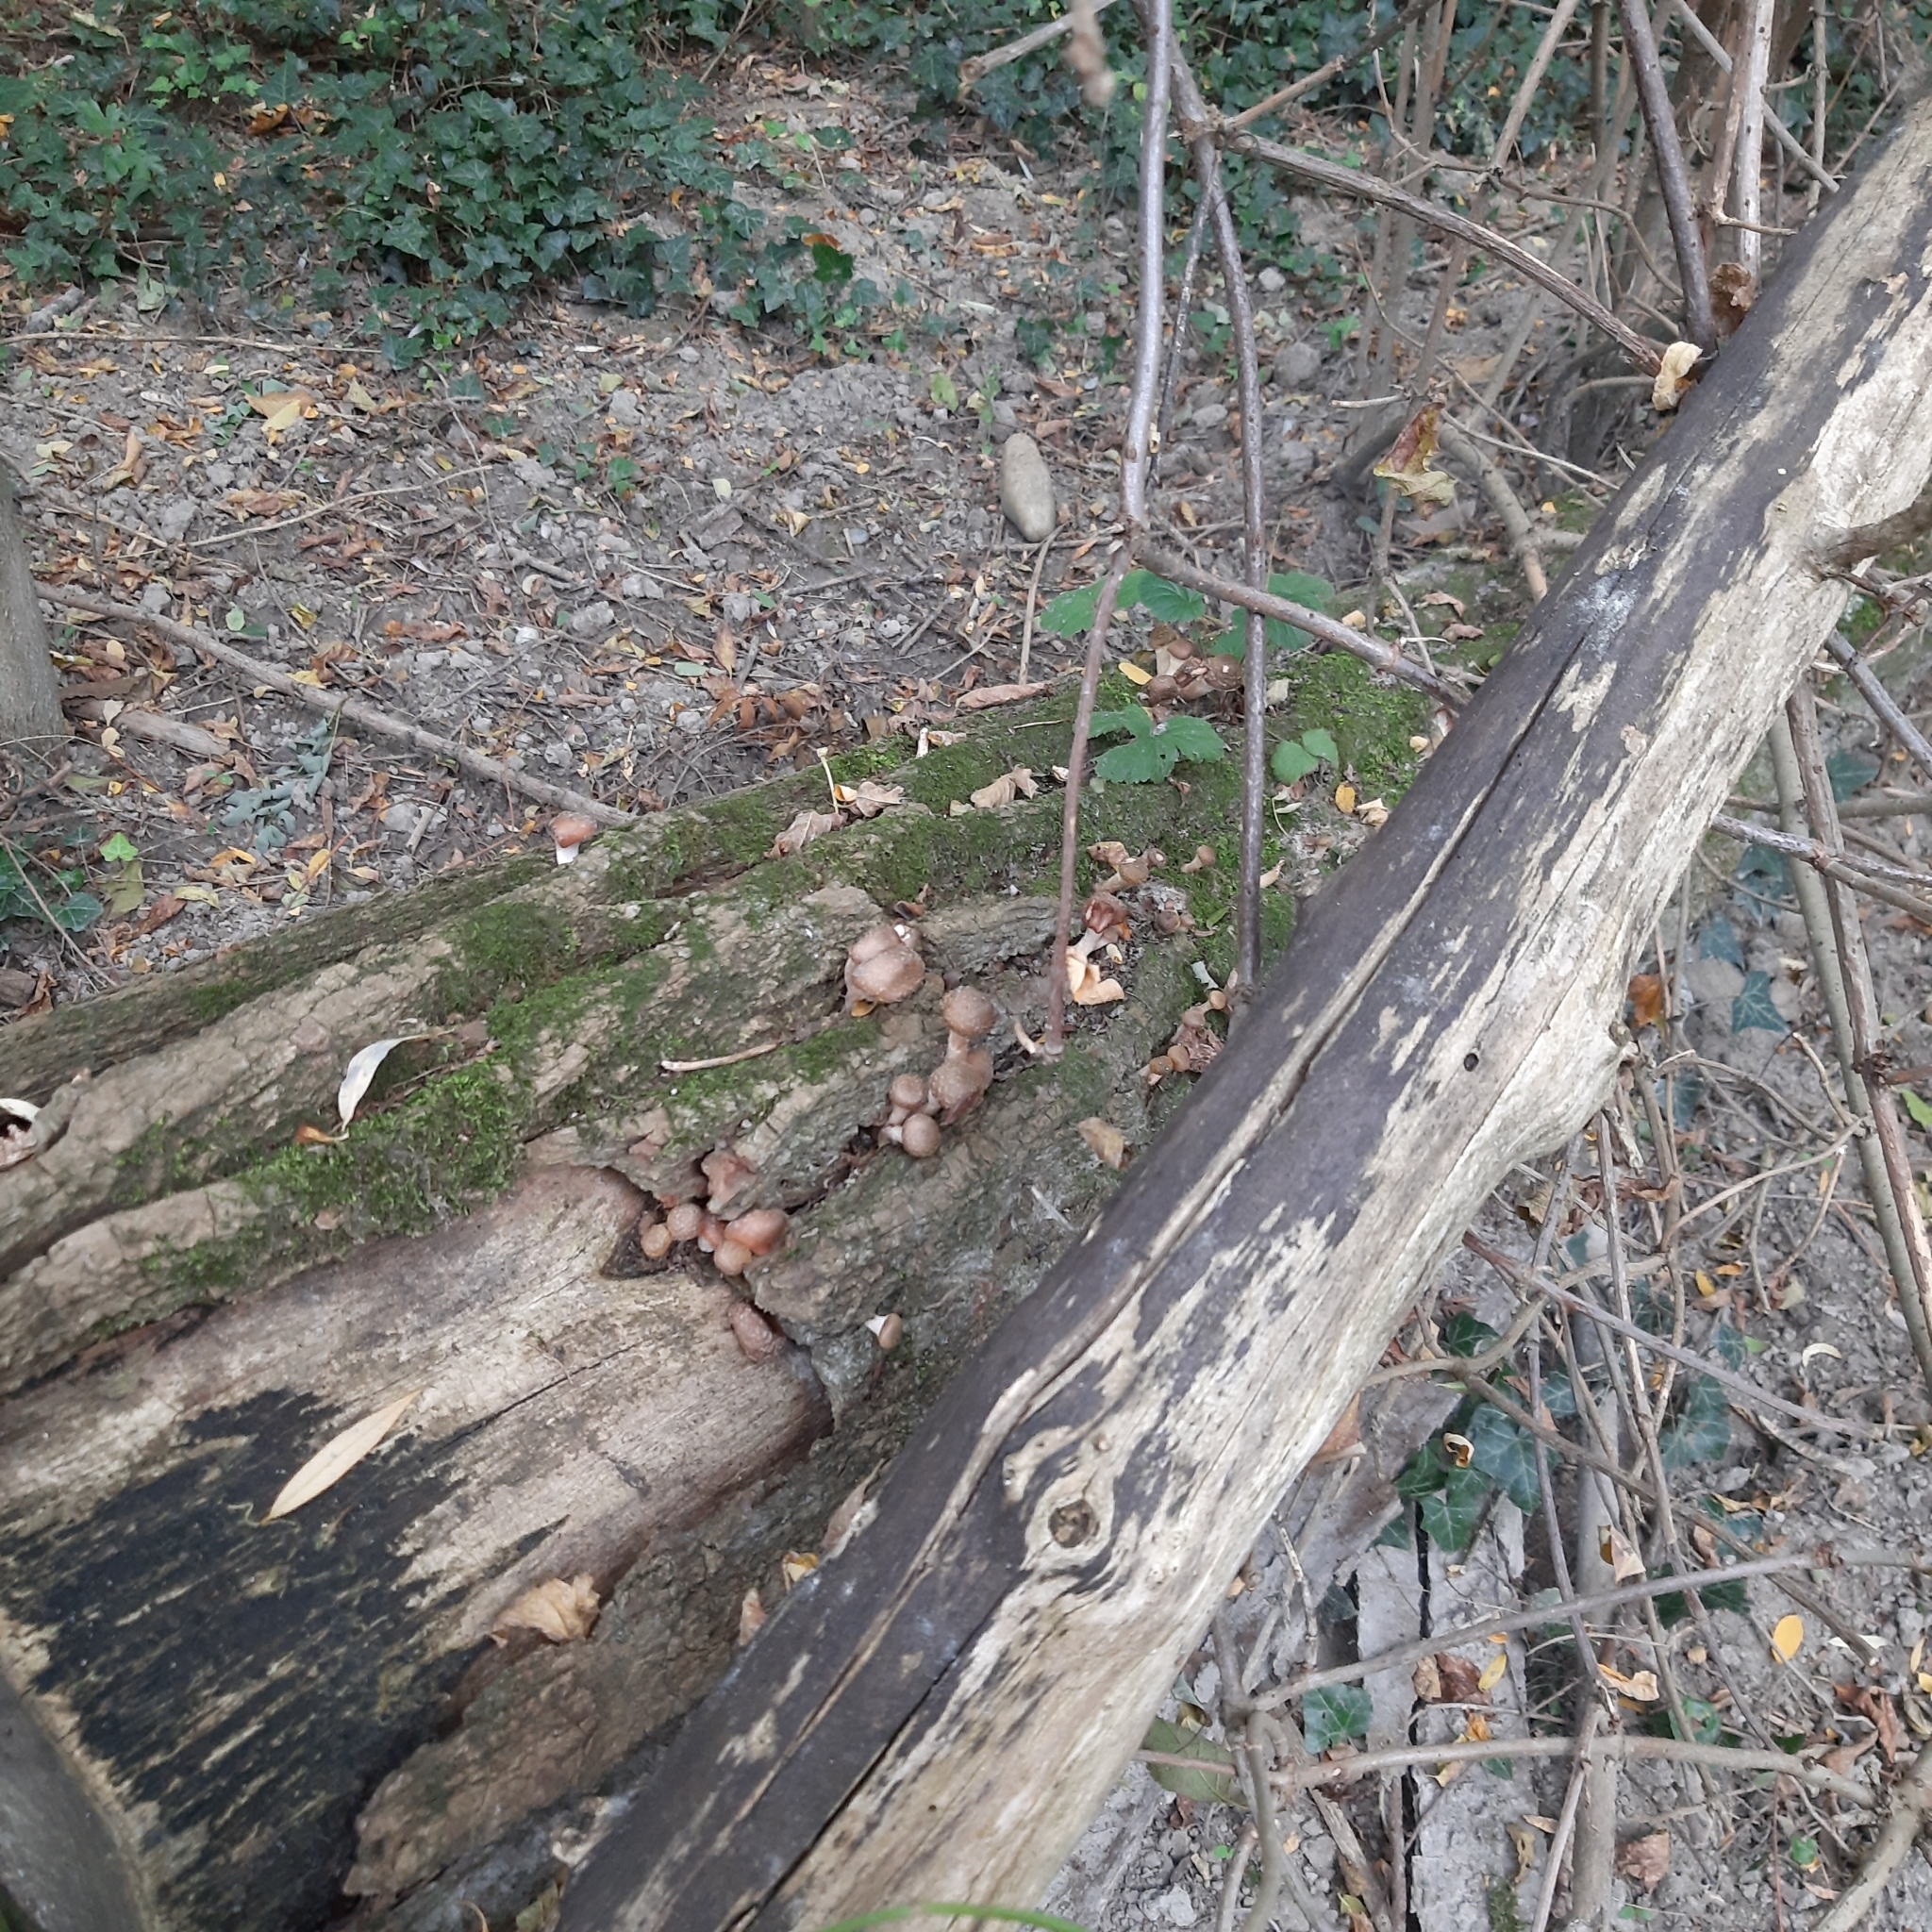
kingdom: Fungi
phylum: Basidiomycota
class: Agaricomycetes
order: Agaricales
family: Physalacriaceae
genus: Armillaria
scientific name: Armillaria
